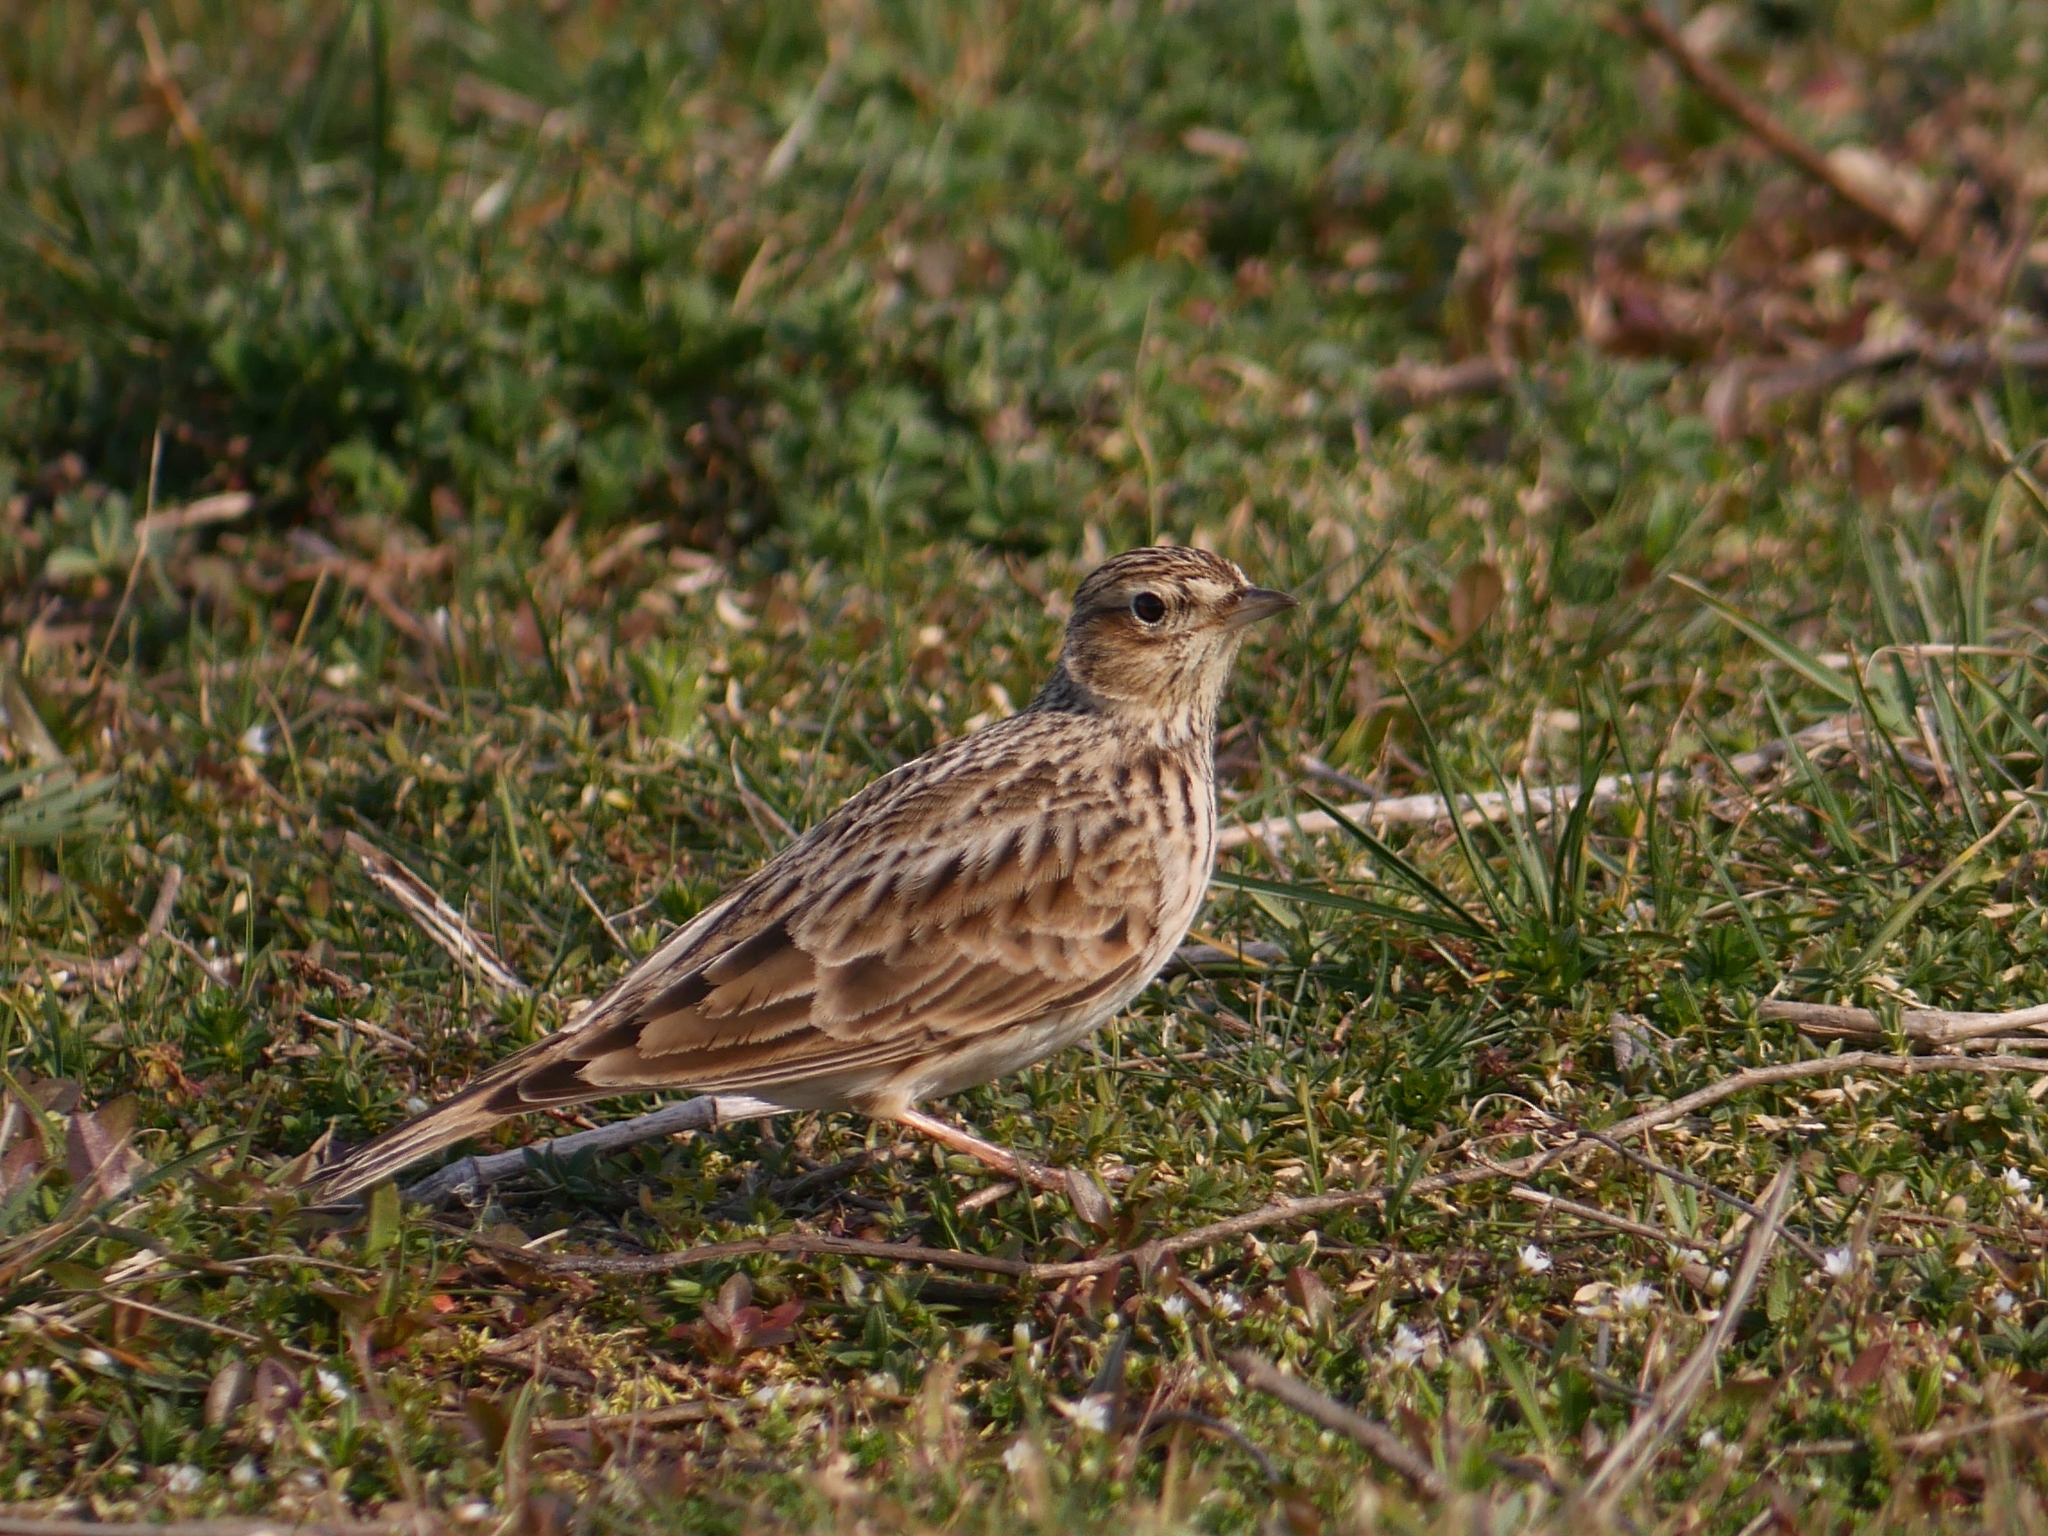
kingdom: Animalia
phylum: Chordata
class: Aves
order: Passeriformes
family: Alaudidae
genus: Alauda
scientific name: Alauda arvensis
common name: Eurasian skylark
